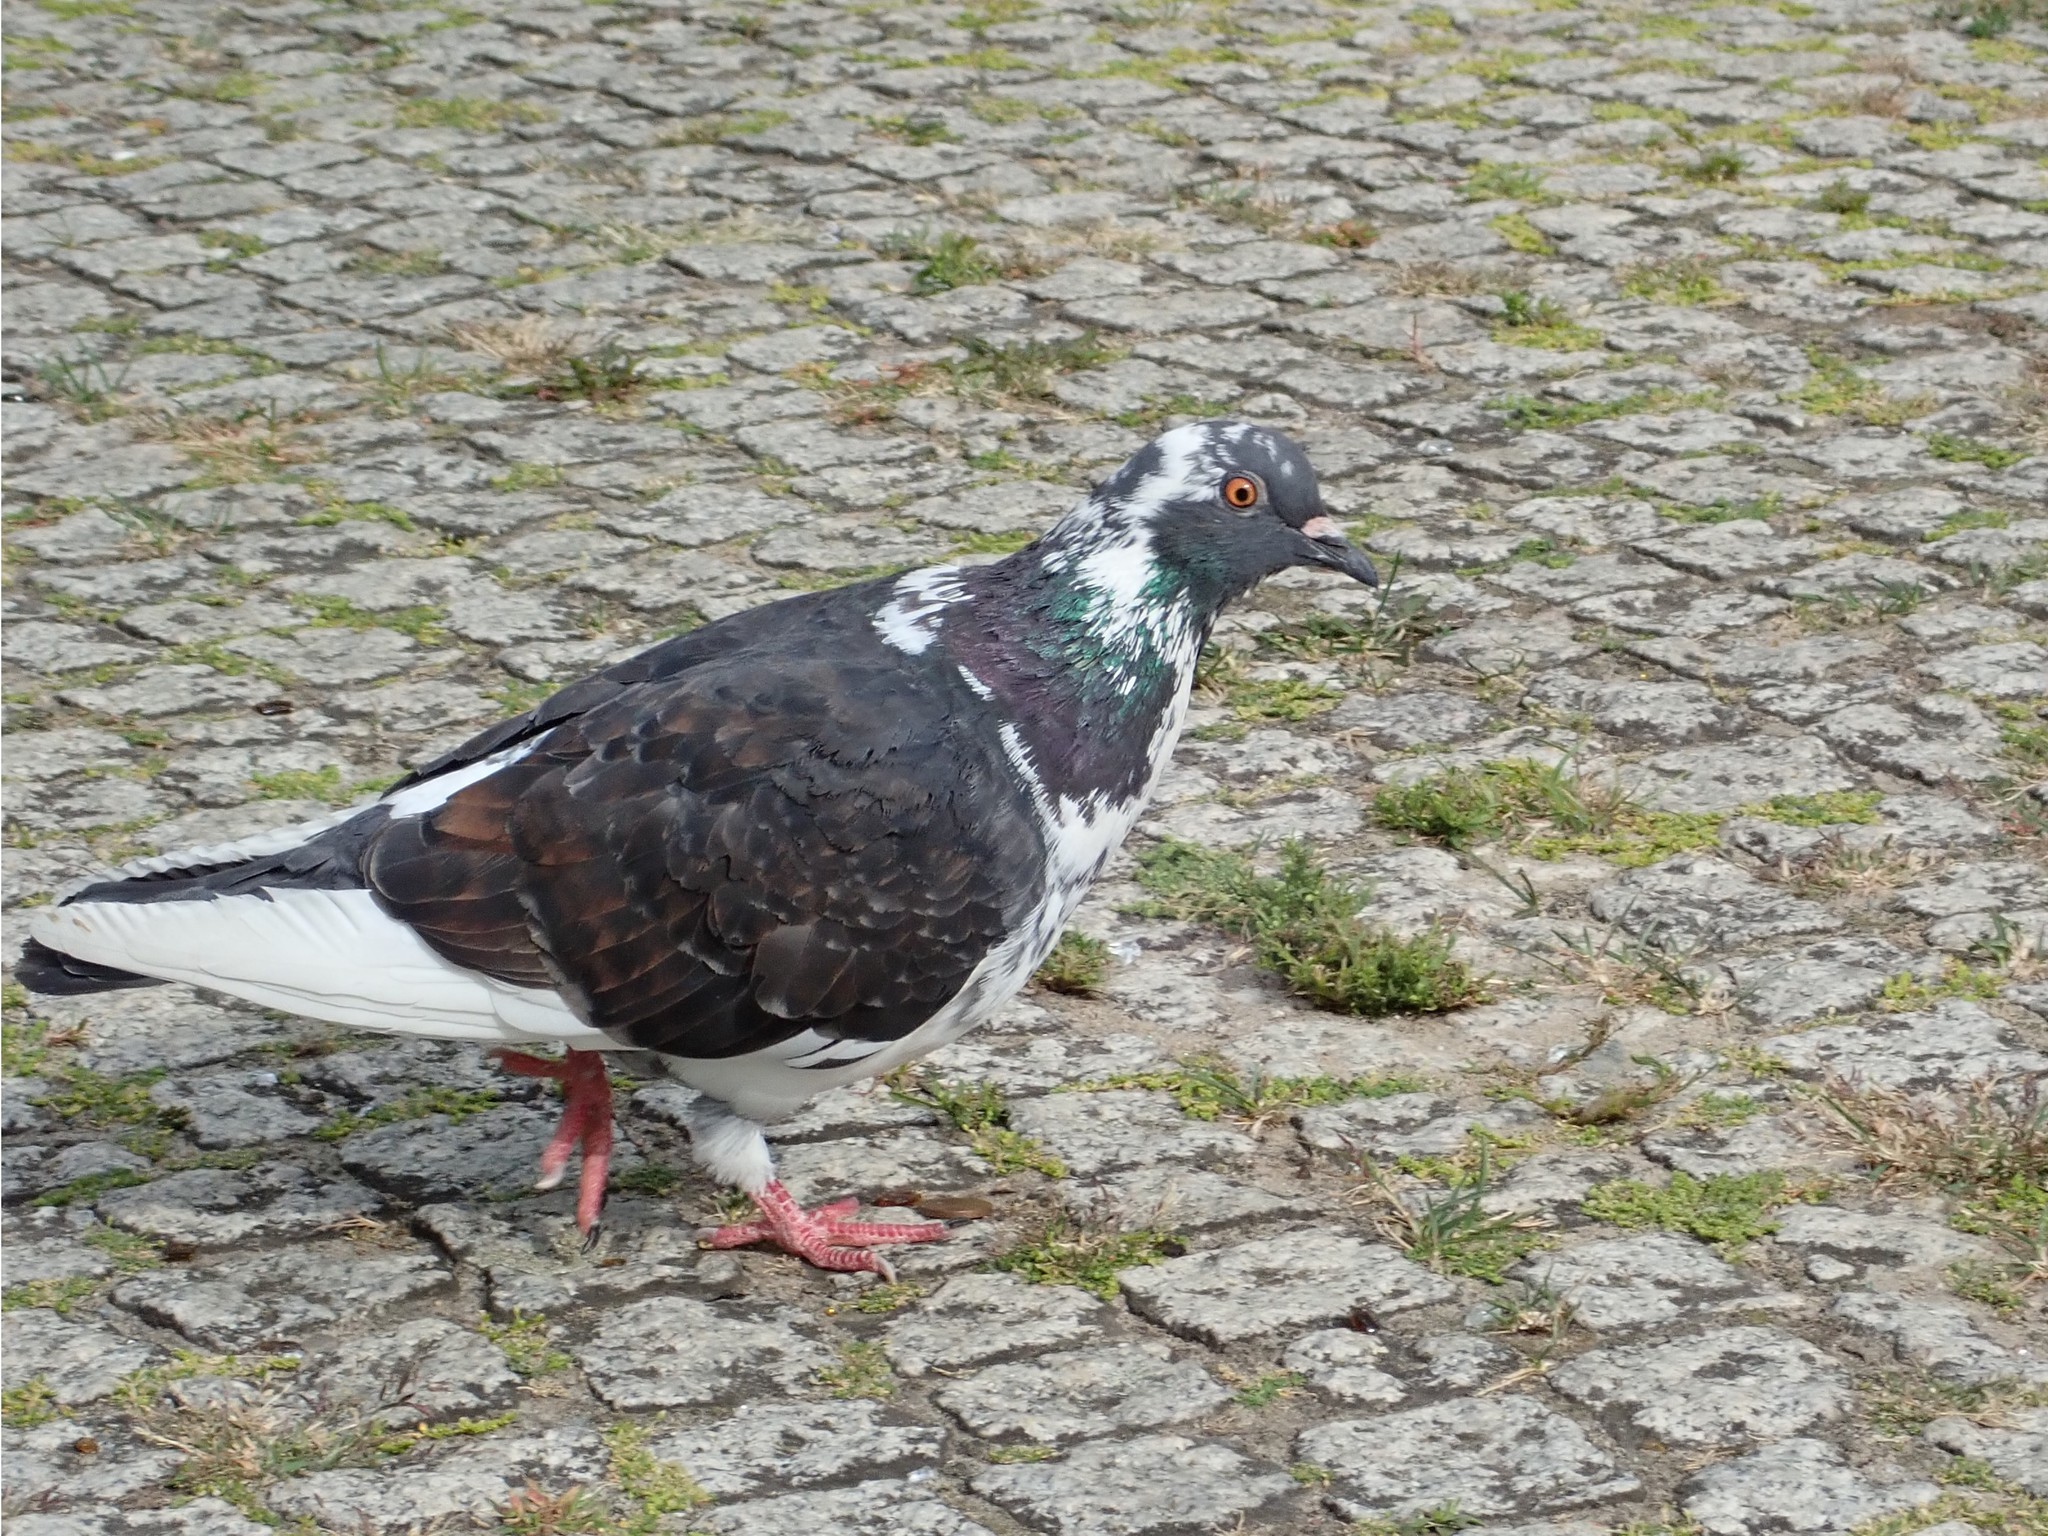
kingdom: Animalia
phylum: Chordata
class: Aves
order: Columbiformes
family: Columbidae
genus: Columba
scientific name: Columba livia
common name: Rock pigeon
